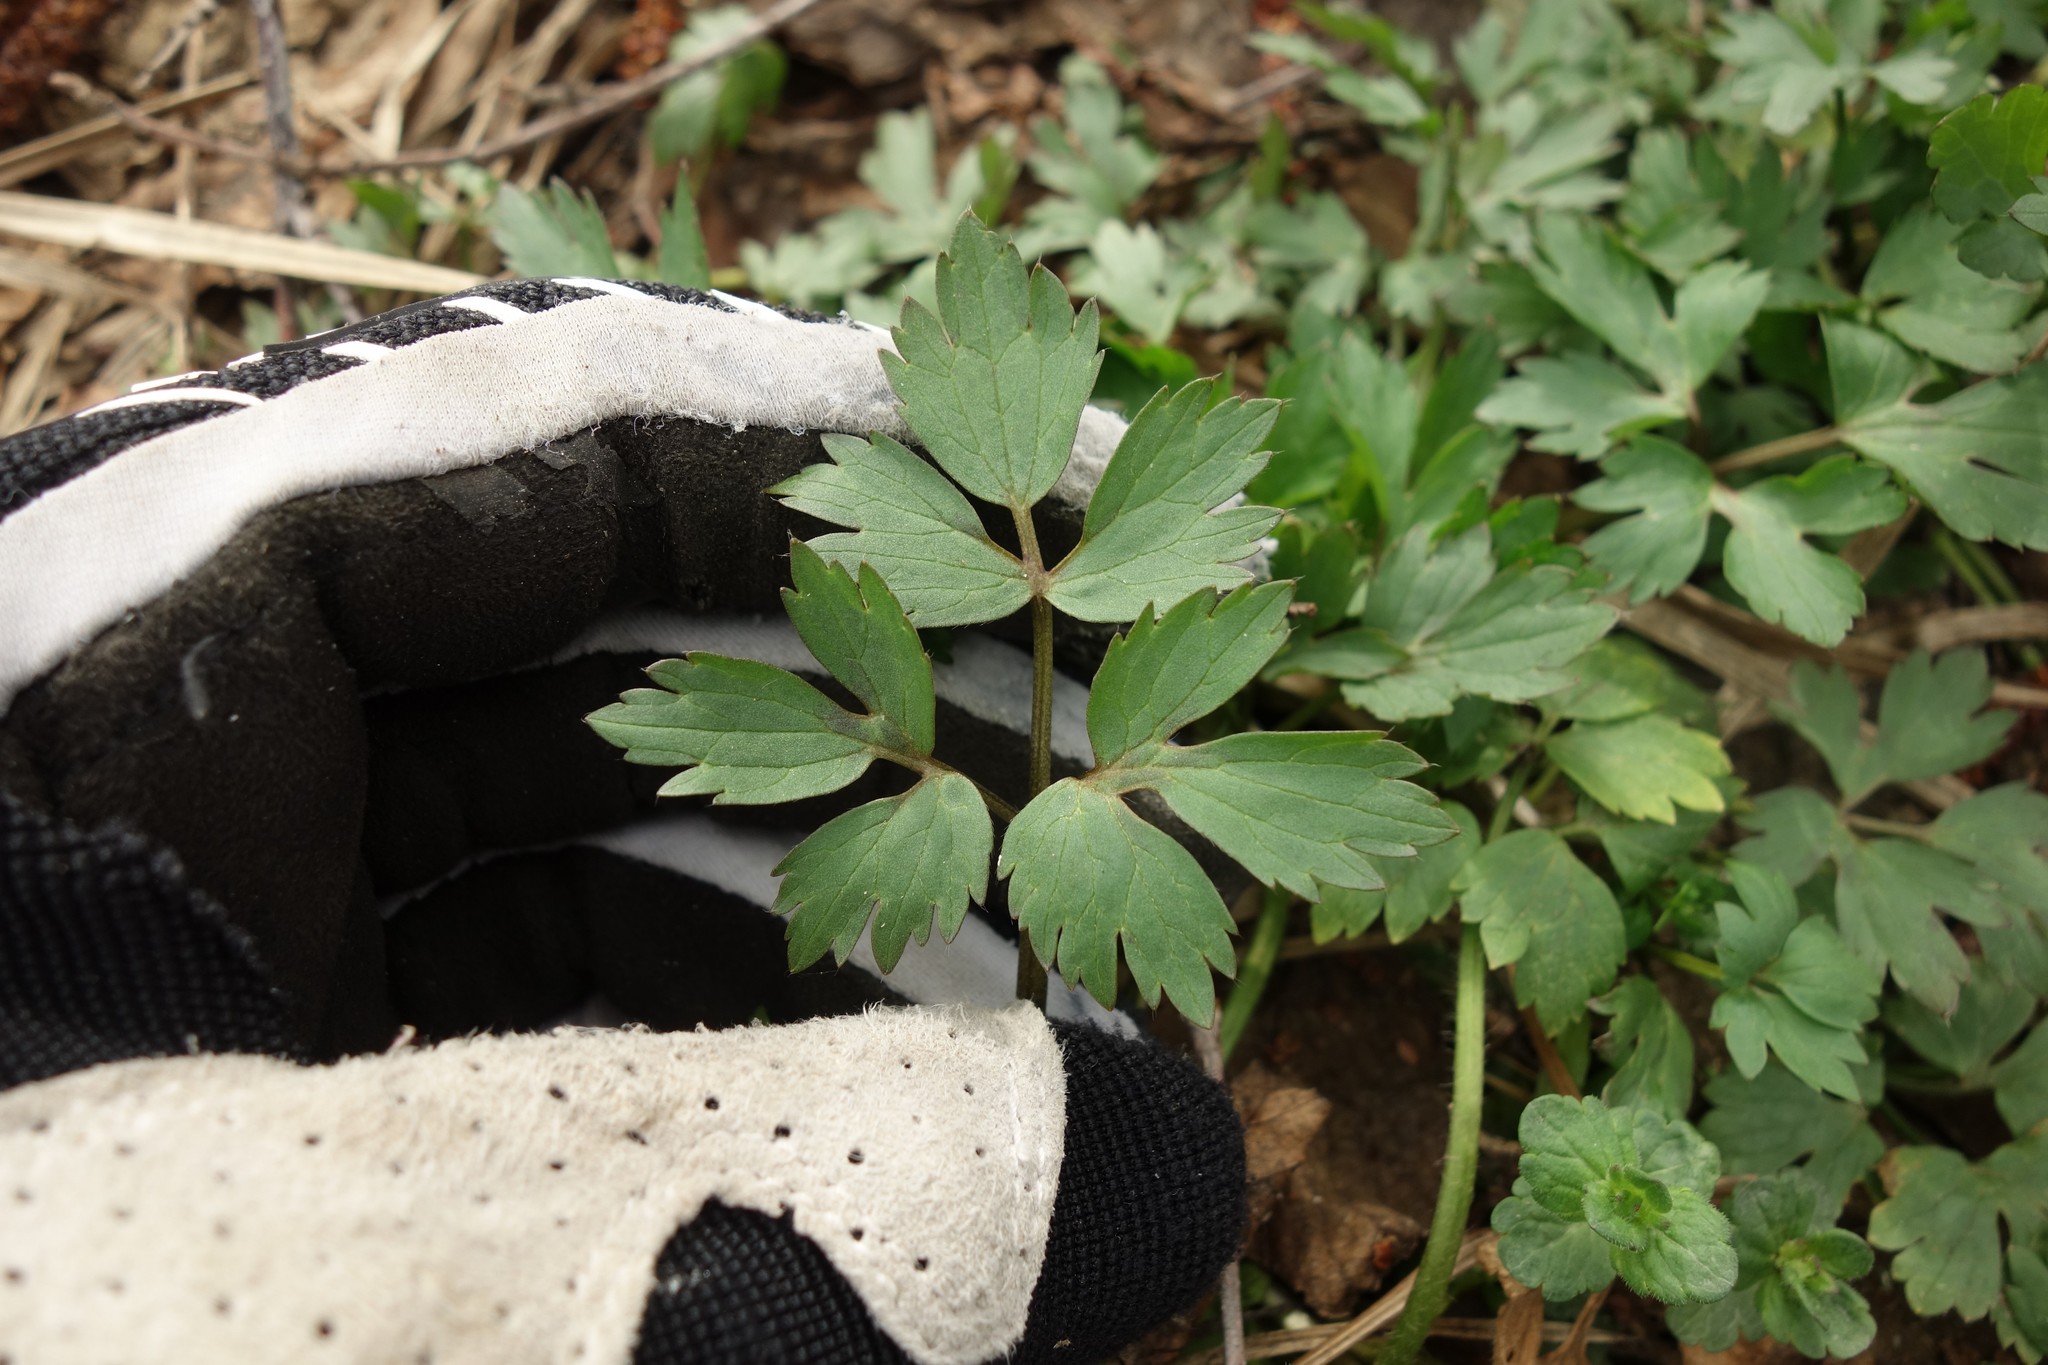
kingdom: Plantae
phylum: Tracheophyta
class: Magnoliopsida
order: Ranunculales
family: Ranunculaceae
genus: Ranunculus
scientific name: Ranunculus repens
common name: Creeping buttercup
